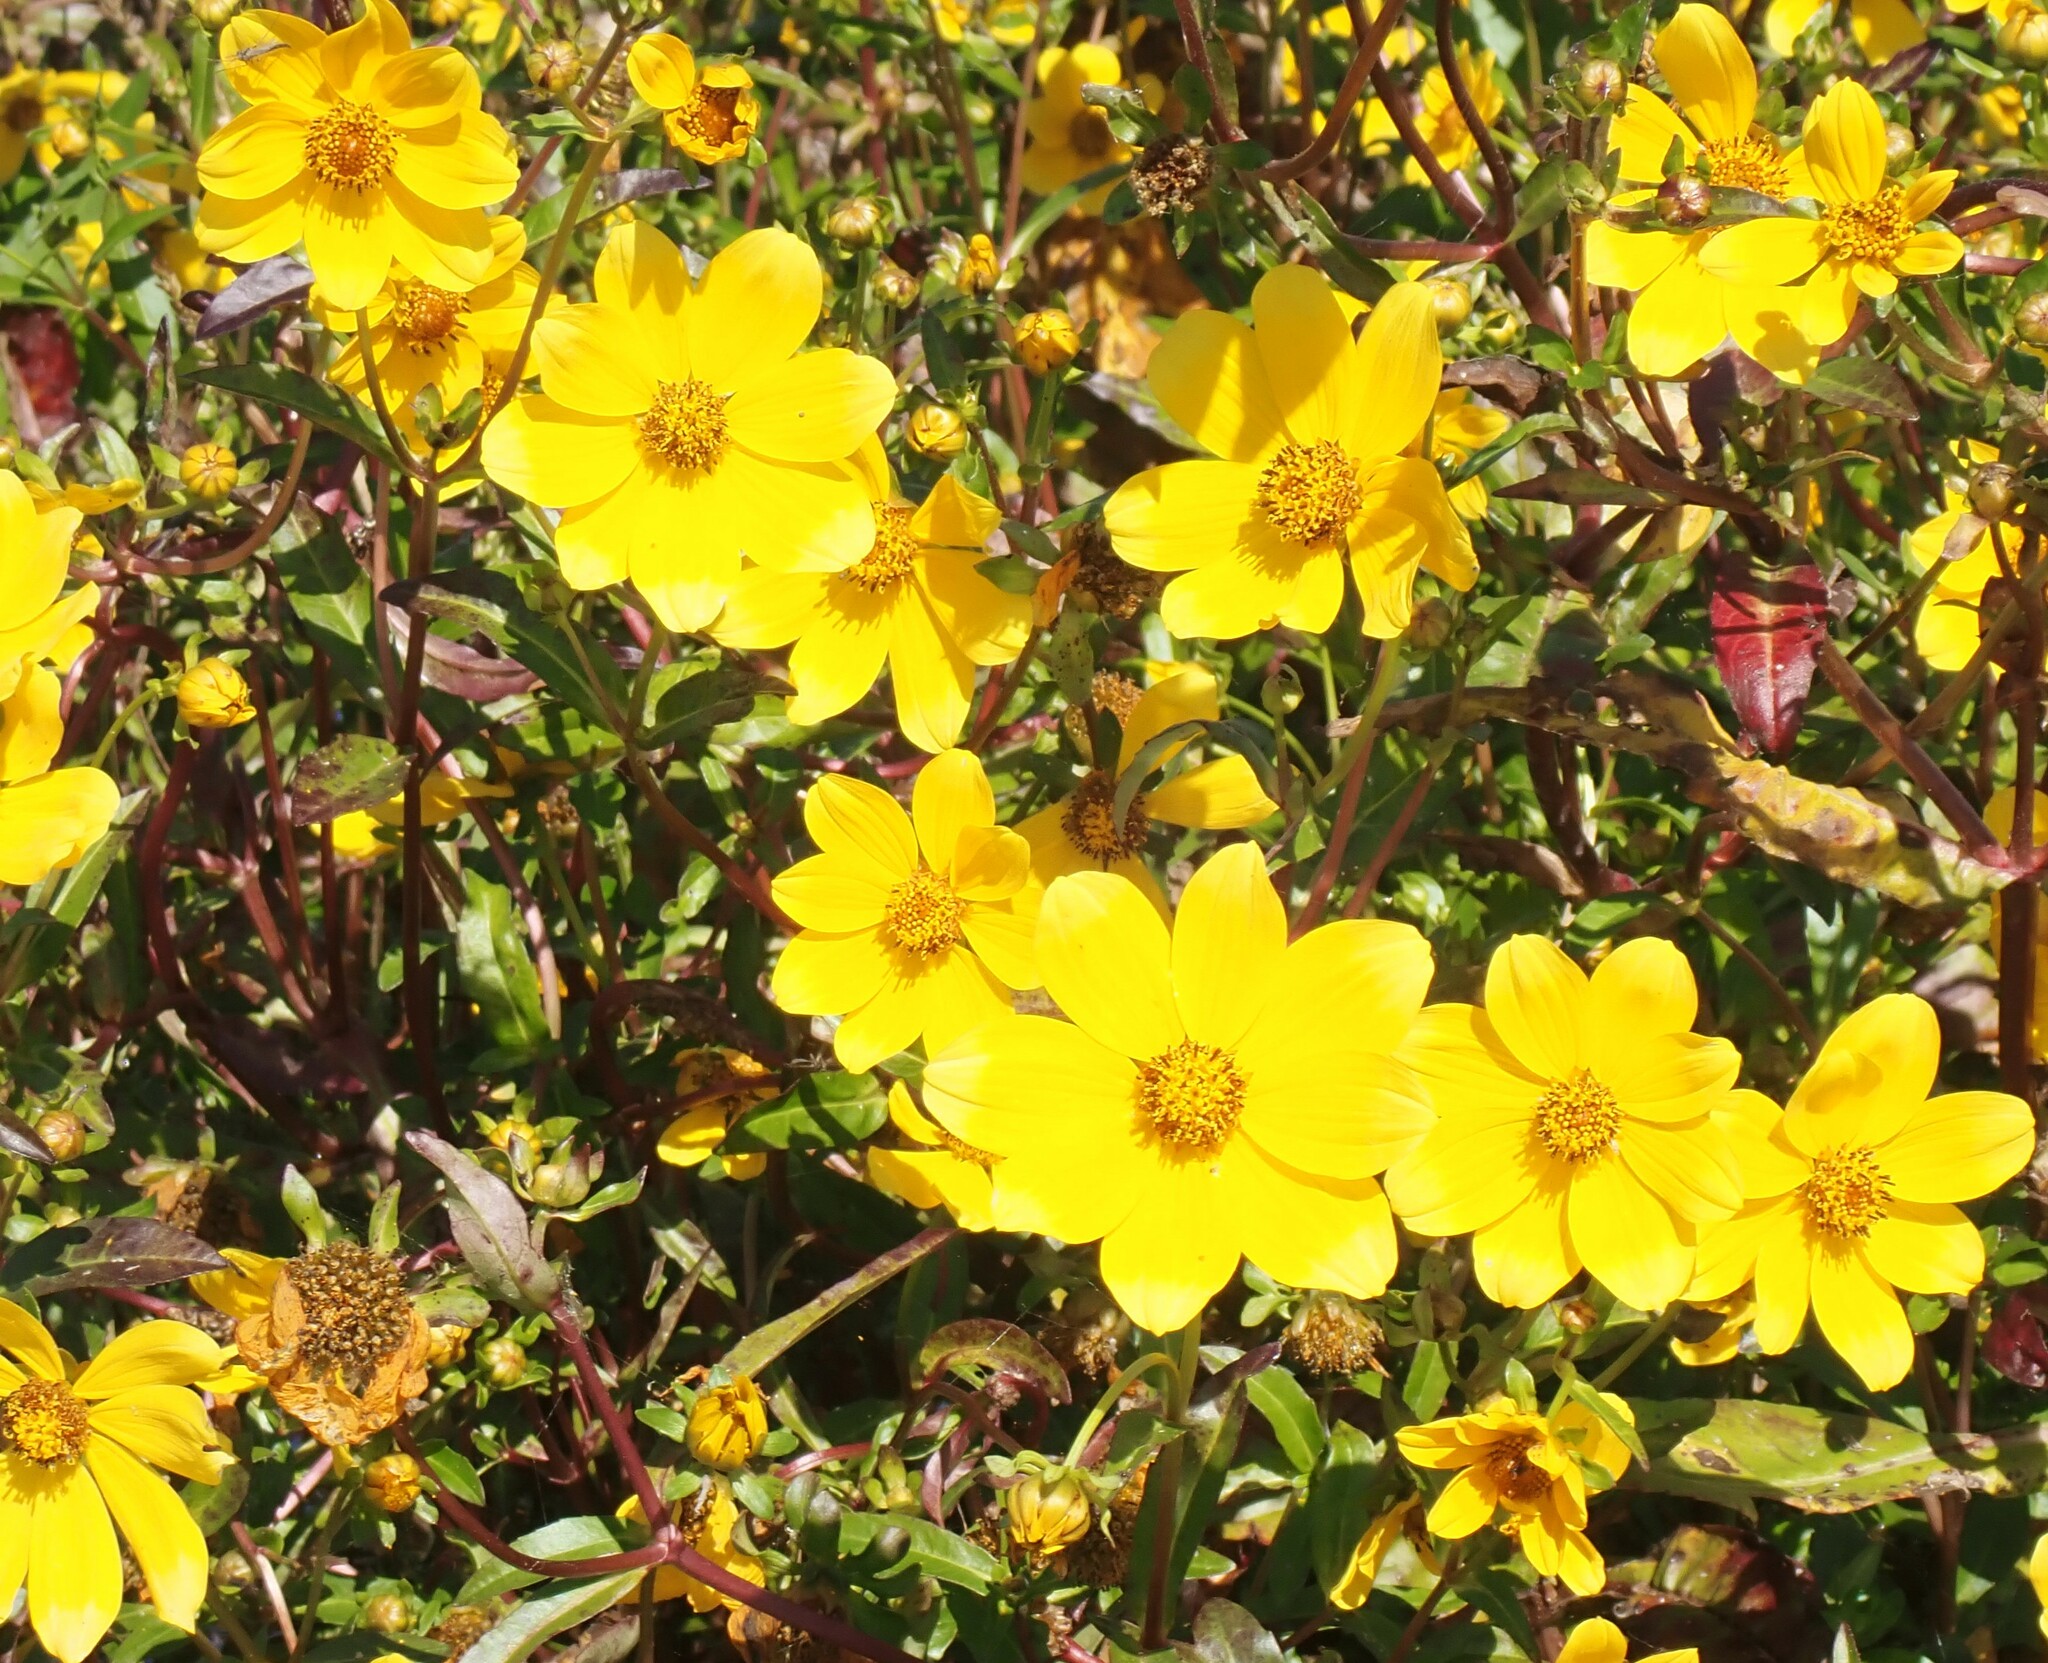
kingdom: Plantae
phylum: Tracheophyta
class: Magnoliopsida
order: Asterales
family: Asteraceae
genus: Bidens
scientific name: Bidens laevis
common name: Larger bur-marigold
